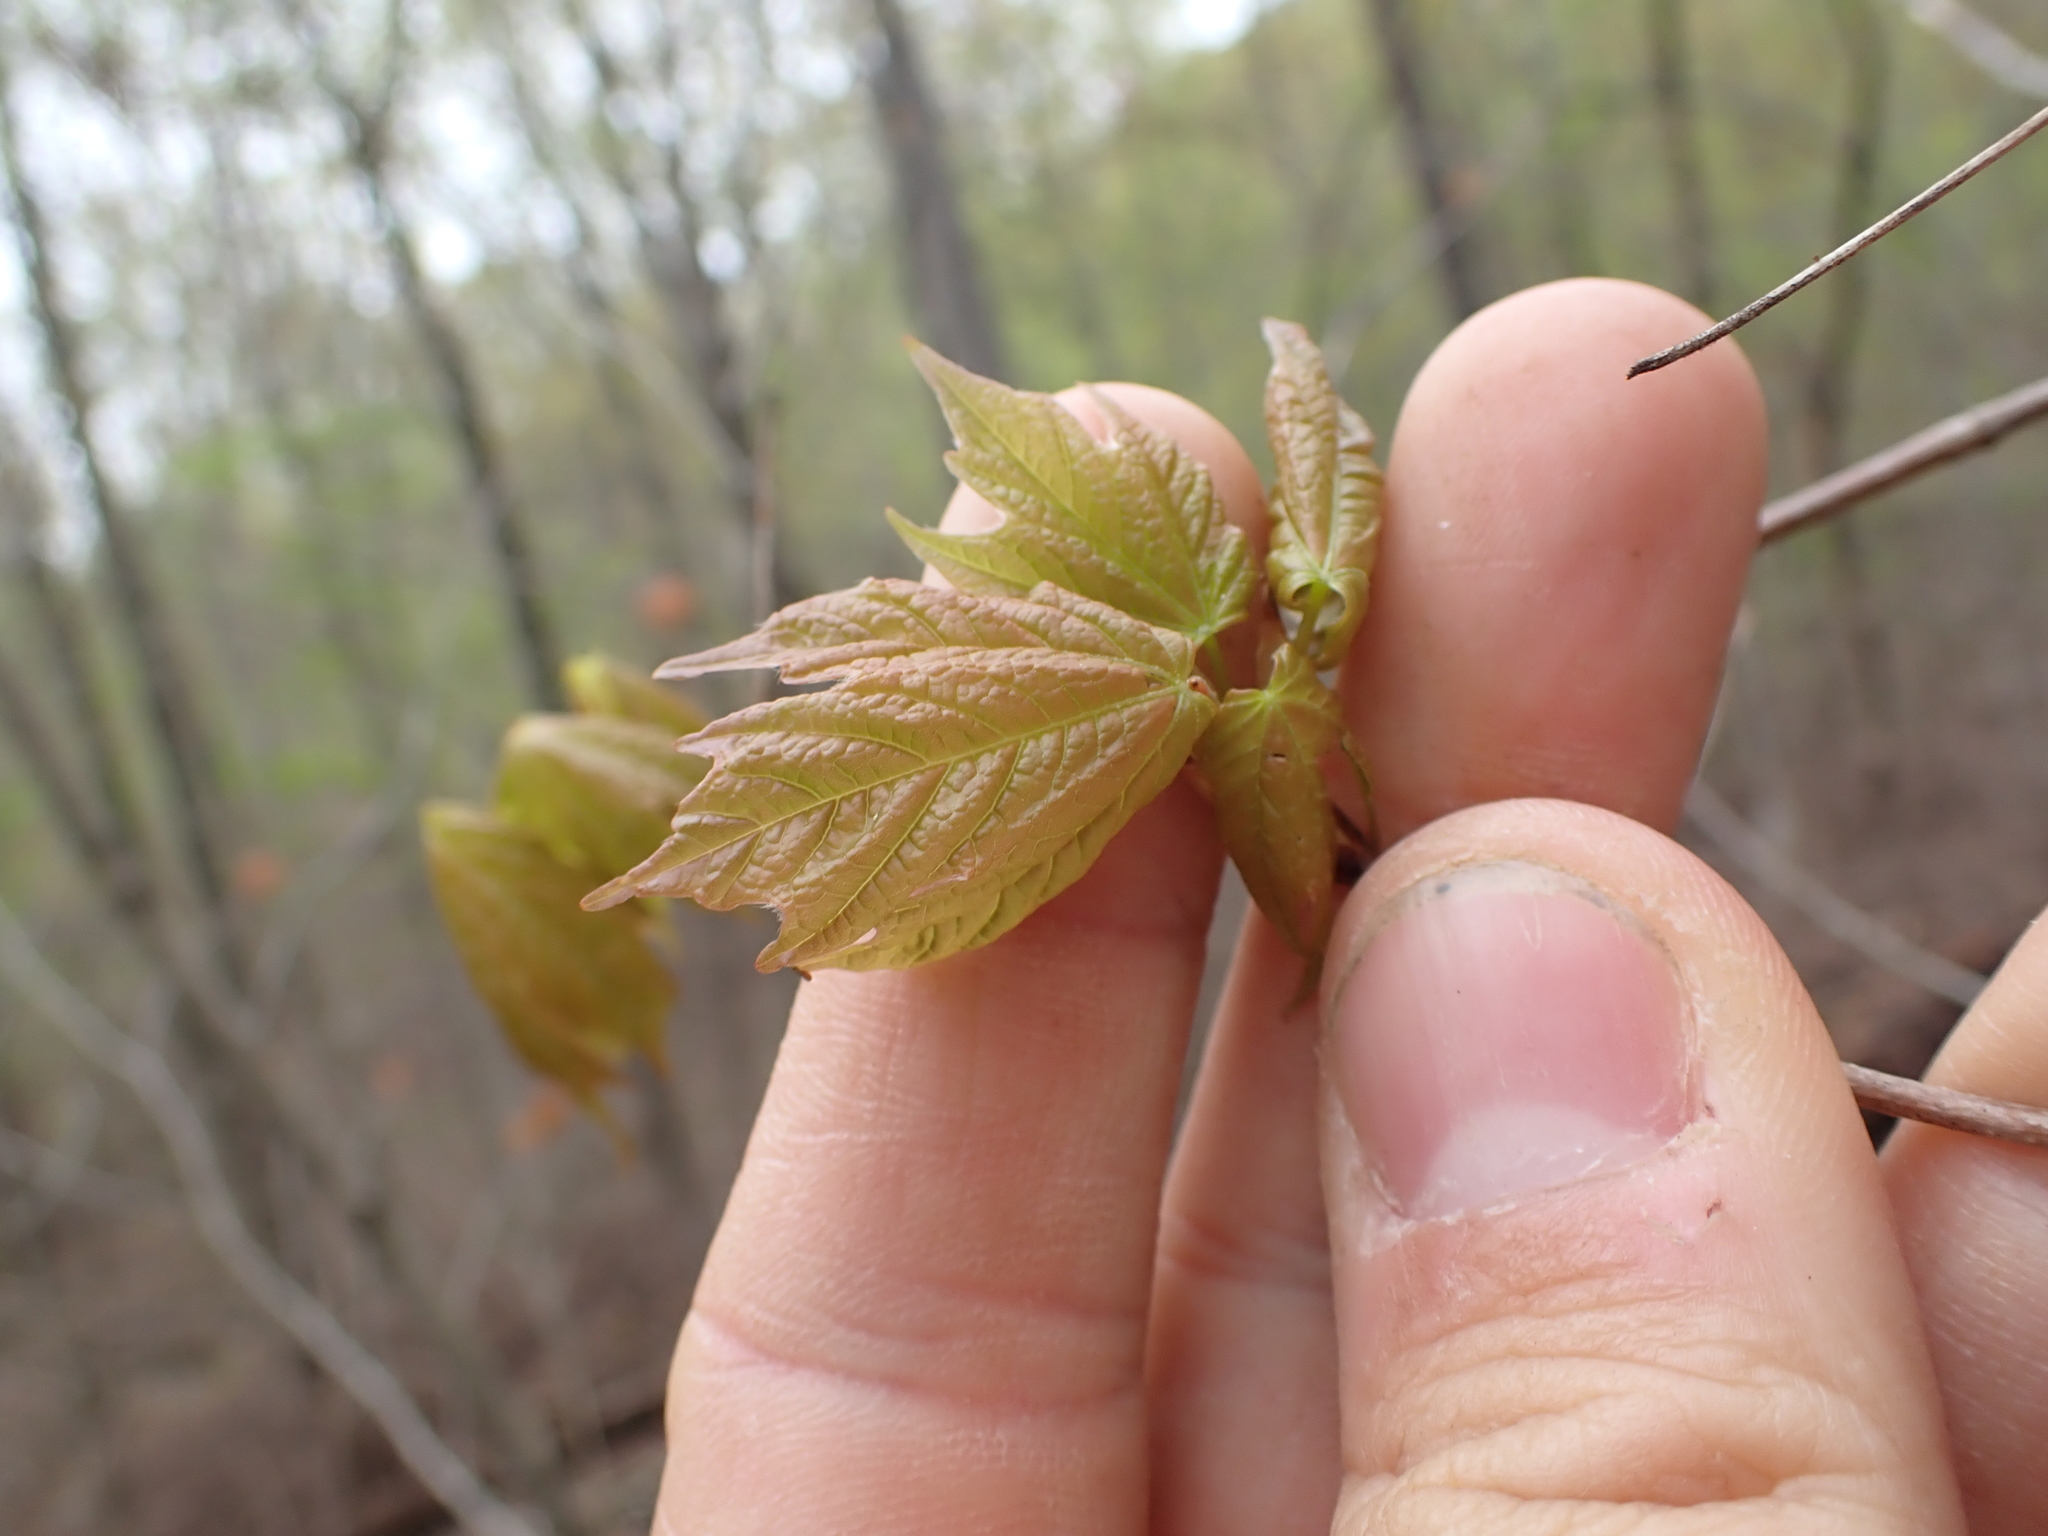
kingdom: Plantae
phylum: Tracheophyta
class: Magnoliopsida
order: Sapindales
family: Sapindaceae
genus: Acer
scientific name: Acer rubrum
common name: Red maple
